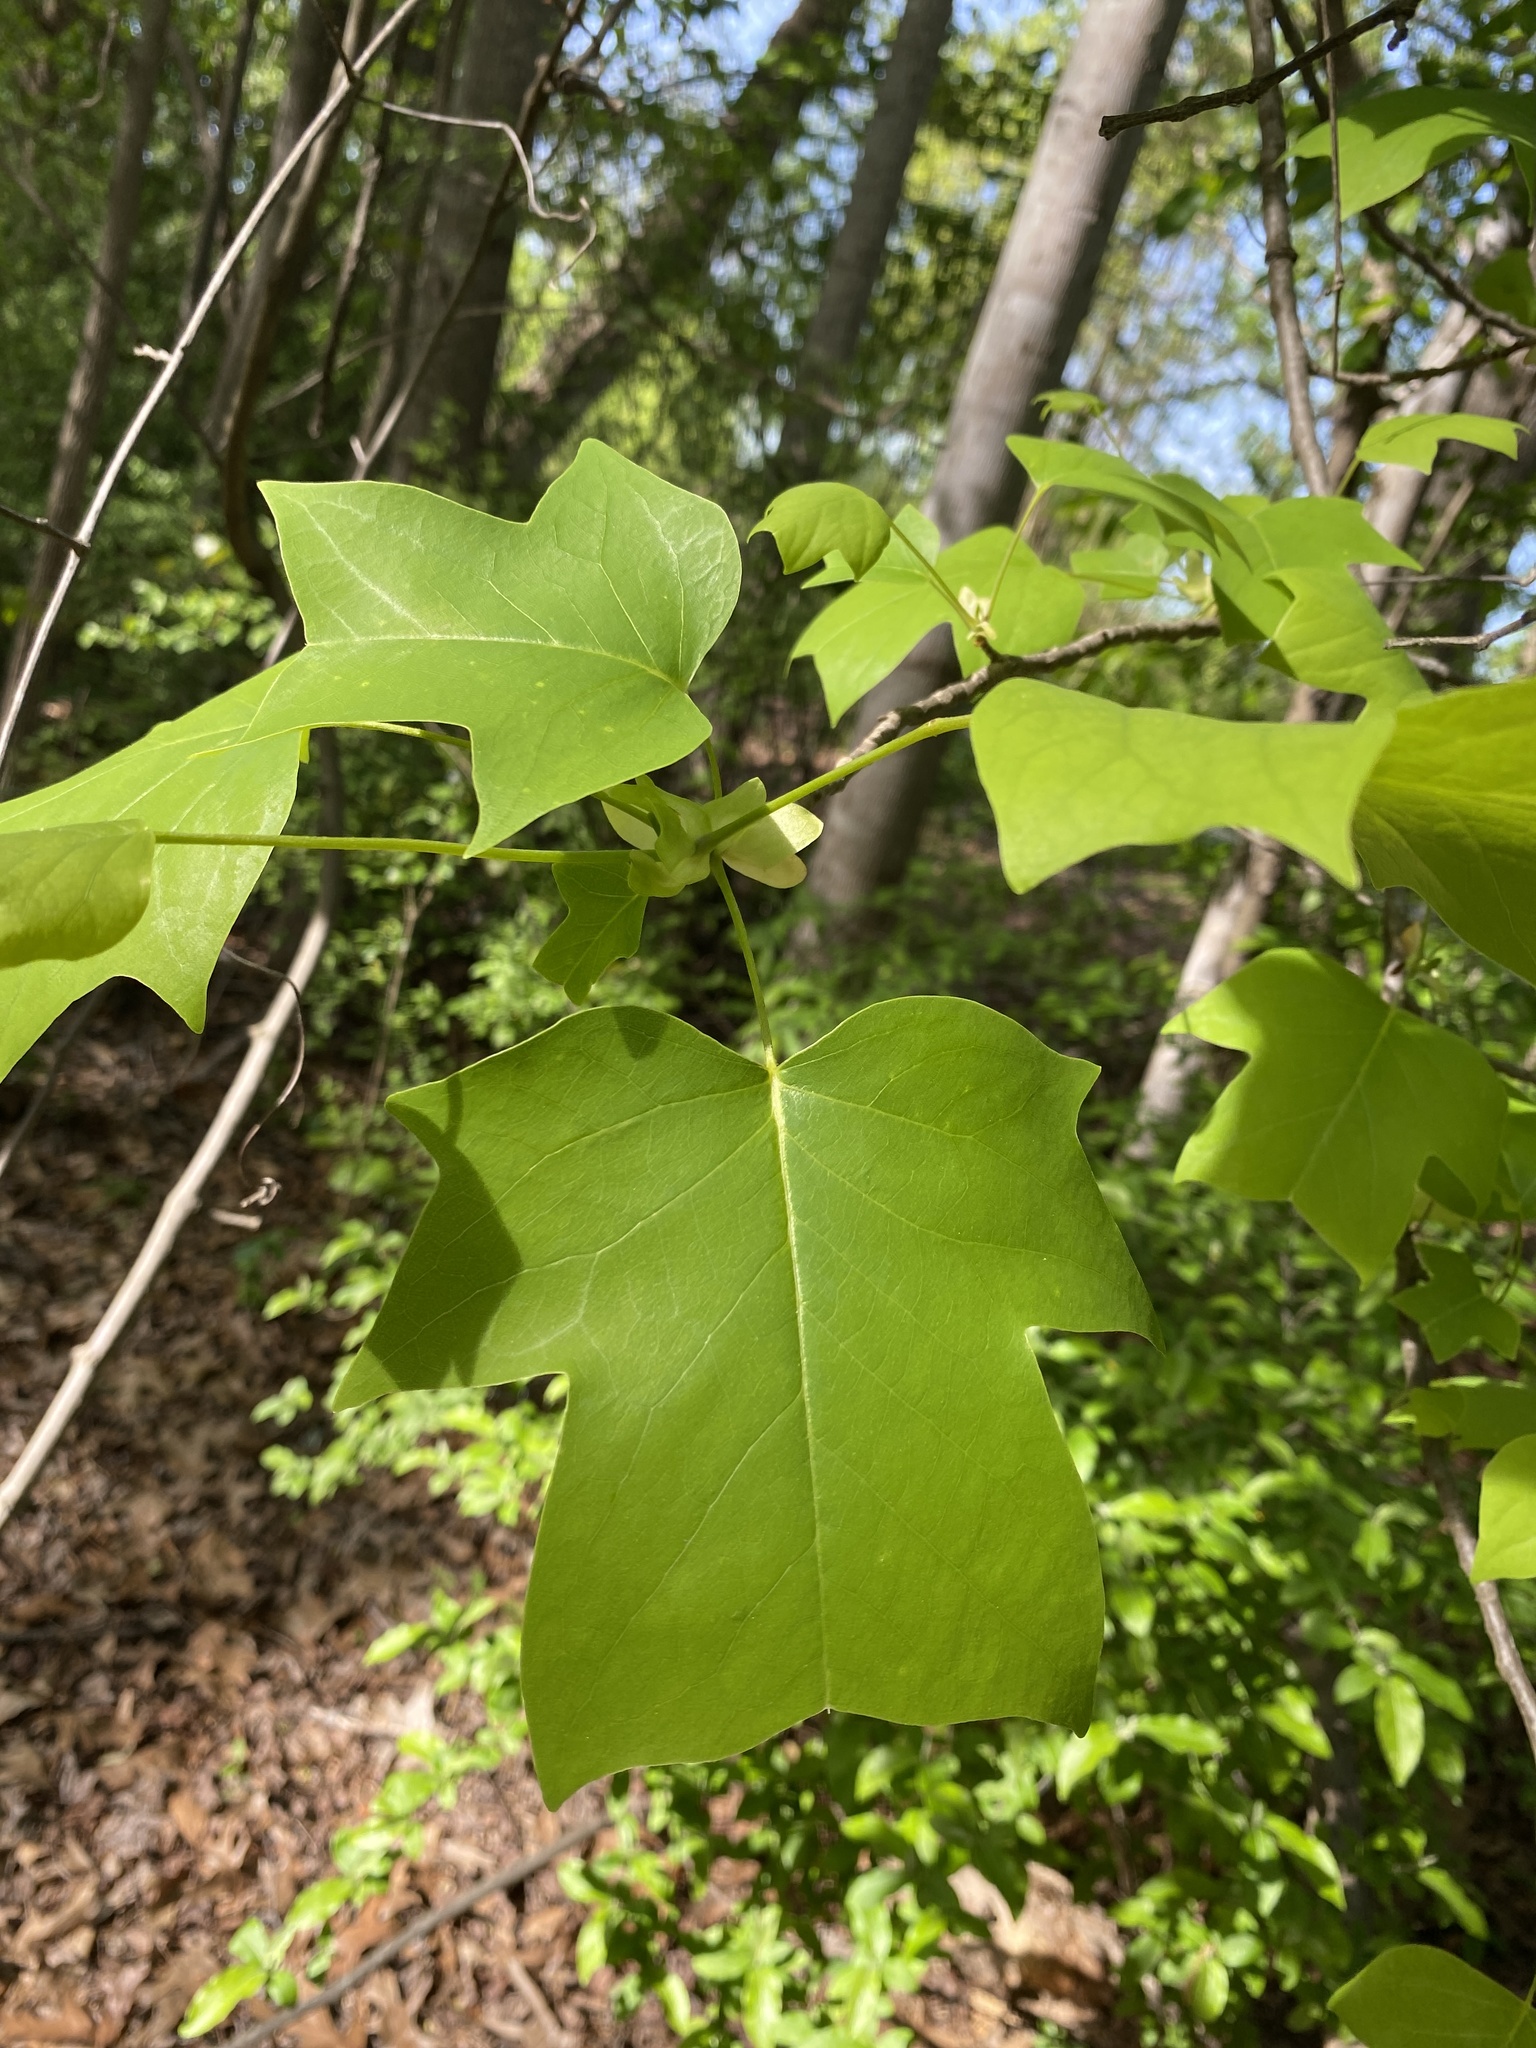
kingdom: Plantae
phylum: Tracheophyta
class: Magnoliopsida
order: Magnoliales
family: Magnoliaceae
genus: Liriodendron
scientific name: Liriodendron tulipifera
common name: Tulip tree
